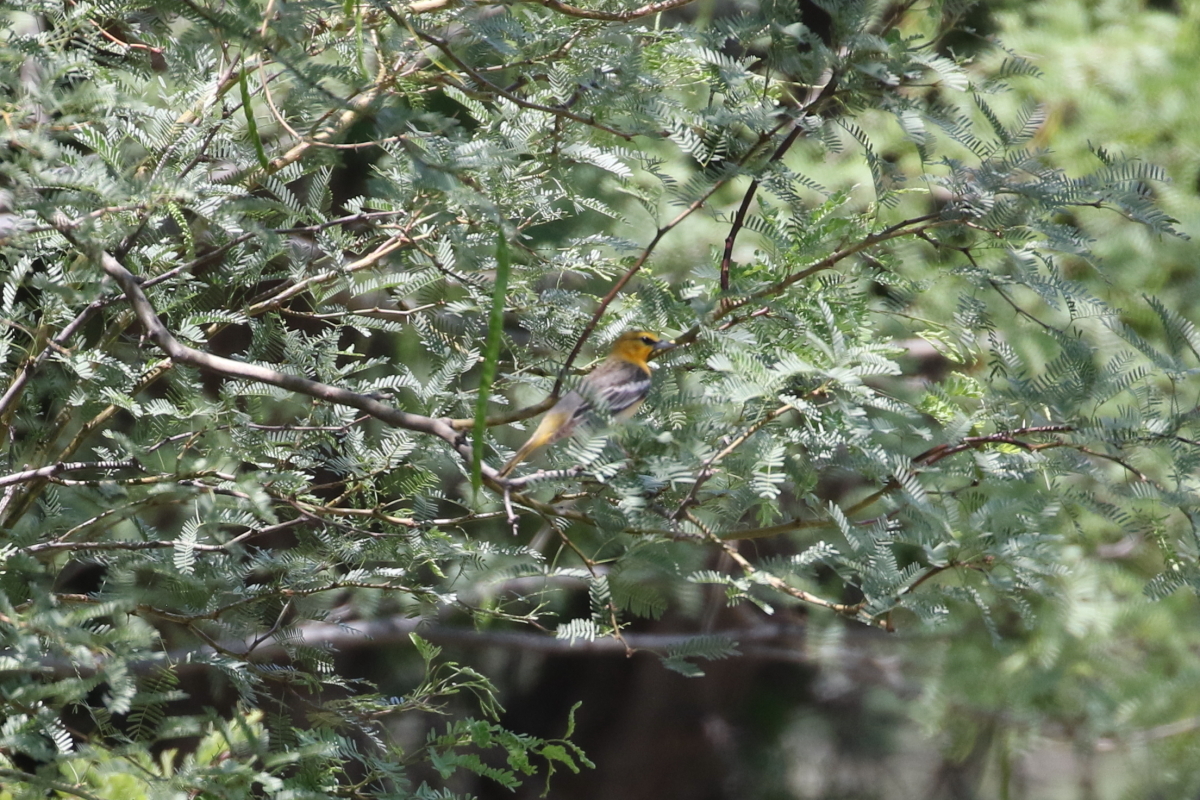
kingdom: Animalia
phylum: Chordata
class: Aves
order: Passeriformes
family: Icteridae
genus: Icterus
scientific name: Icterus bullockii
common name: Bullock's oriole
